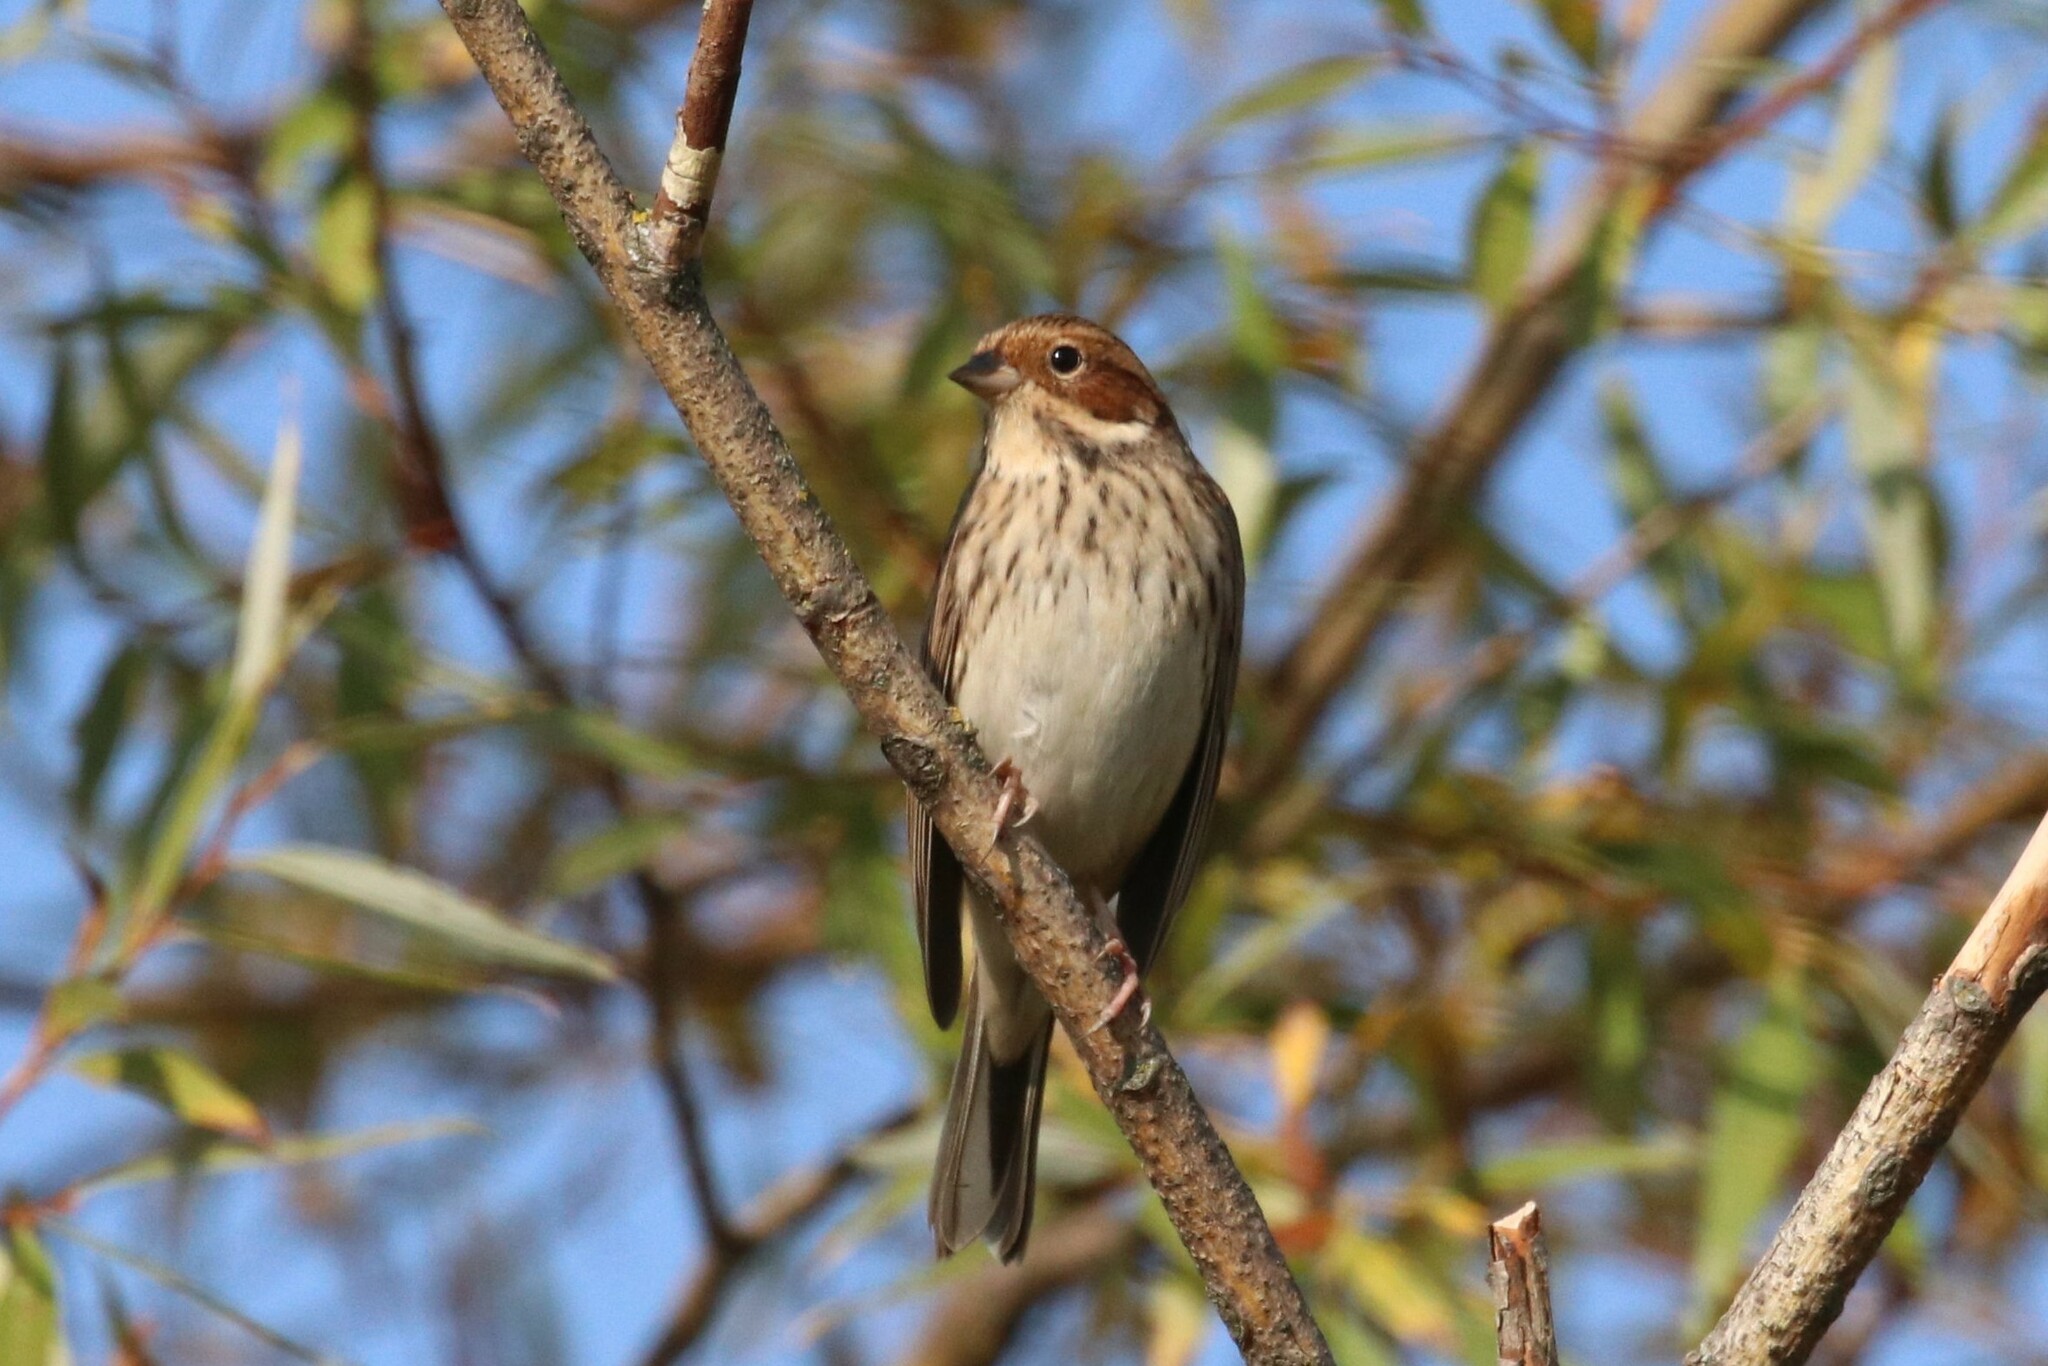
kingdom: Animalia
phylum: Chordata
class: Aves
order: Passeriformes
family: Emberizidae
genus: Emberiza
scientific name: Emberiza pusilla
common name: Little bunting
